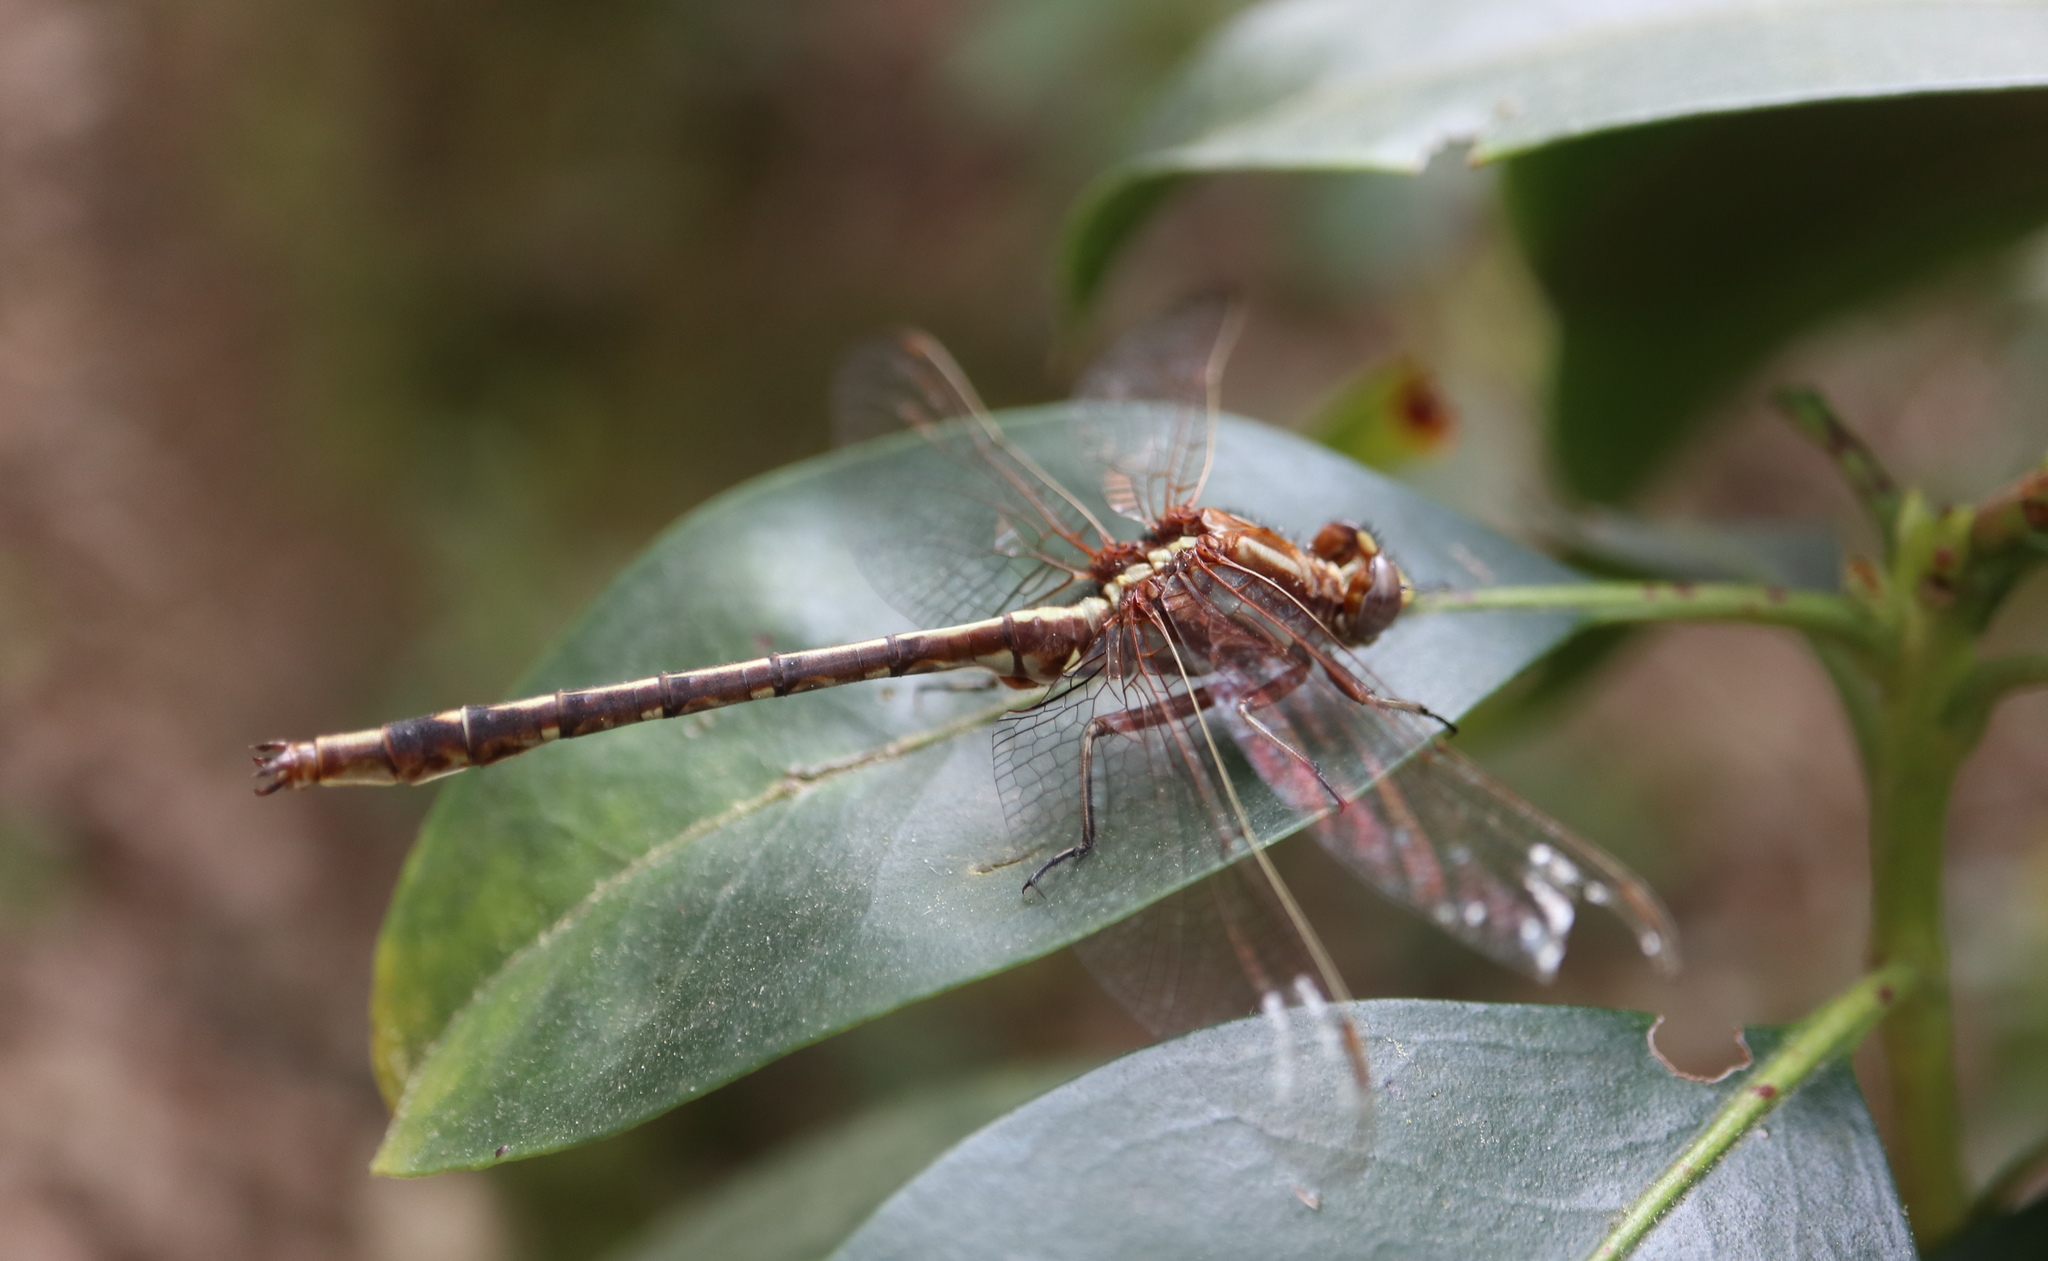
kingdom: Animalia
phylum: Arthropoda
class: Insecta
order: Odonata
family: Gomphidae
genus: Phanogomphus
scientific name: Phanogomphus lividus
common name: Ashy clubtail
